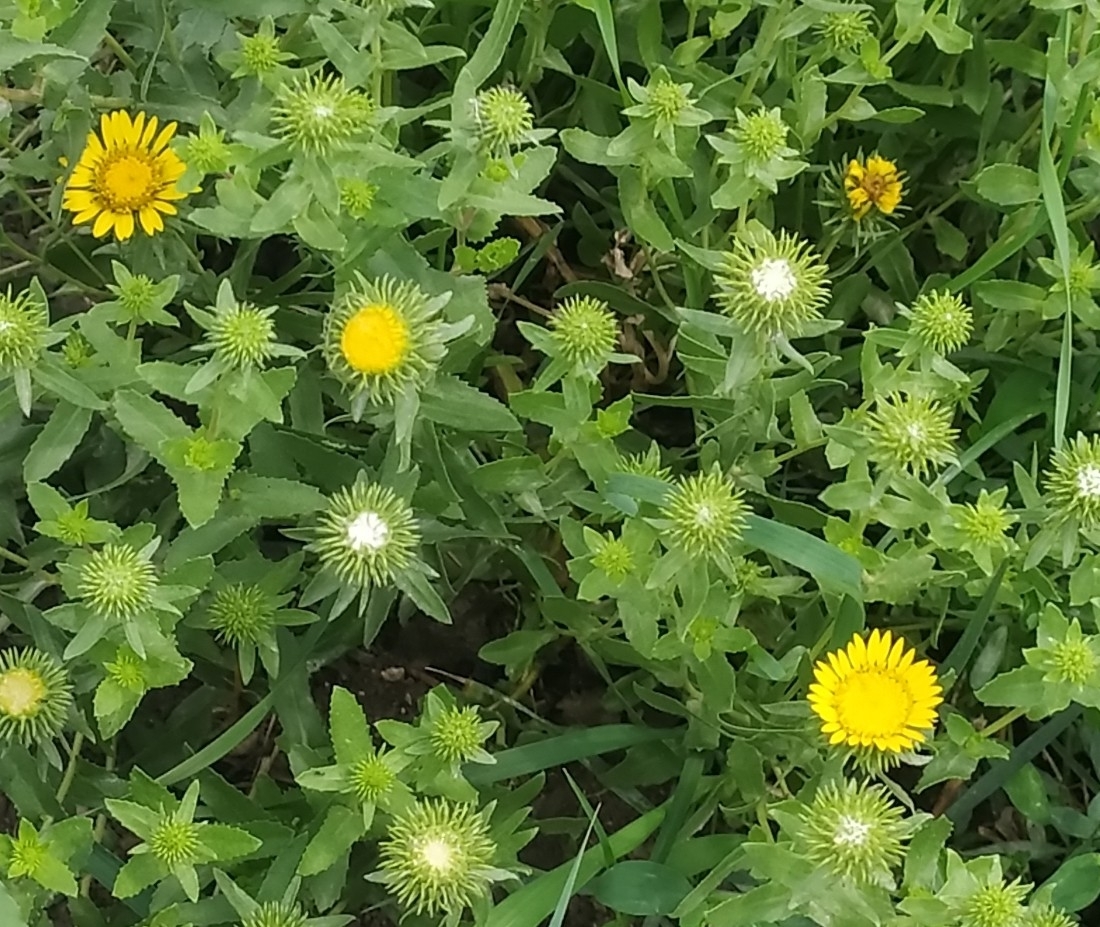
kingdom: Plantae
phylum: Tracheophyta
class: Magnoliopsida
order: Asterales
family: Asteraceae
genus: Grindelia
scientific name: Grindelia squarrosa
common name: Curly-cup gumweed
